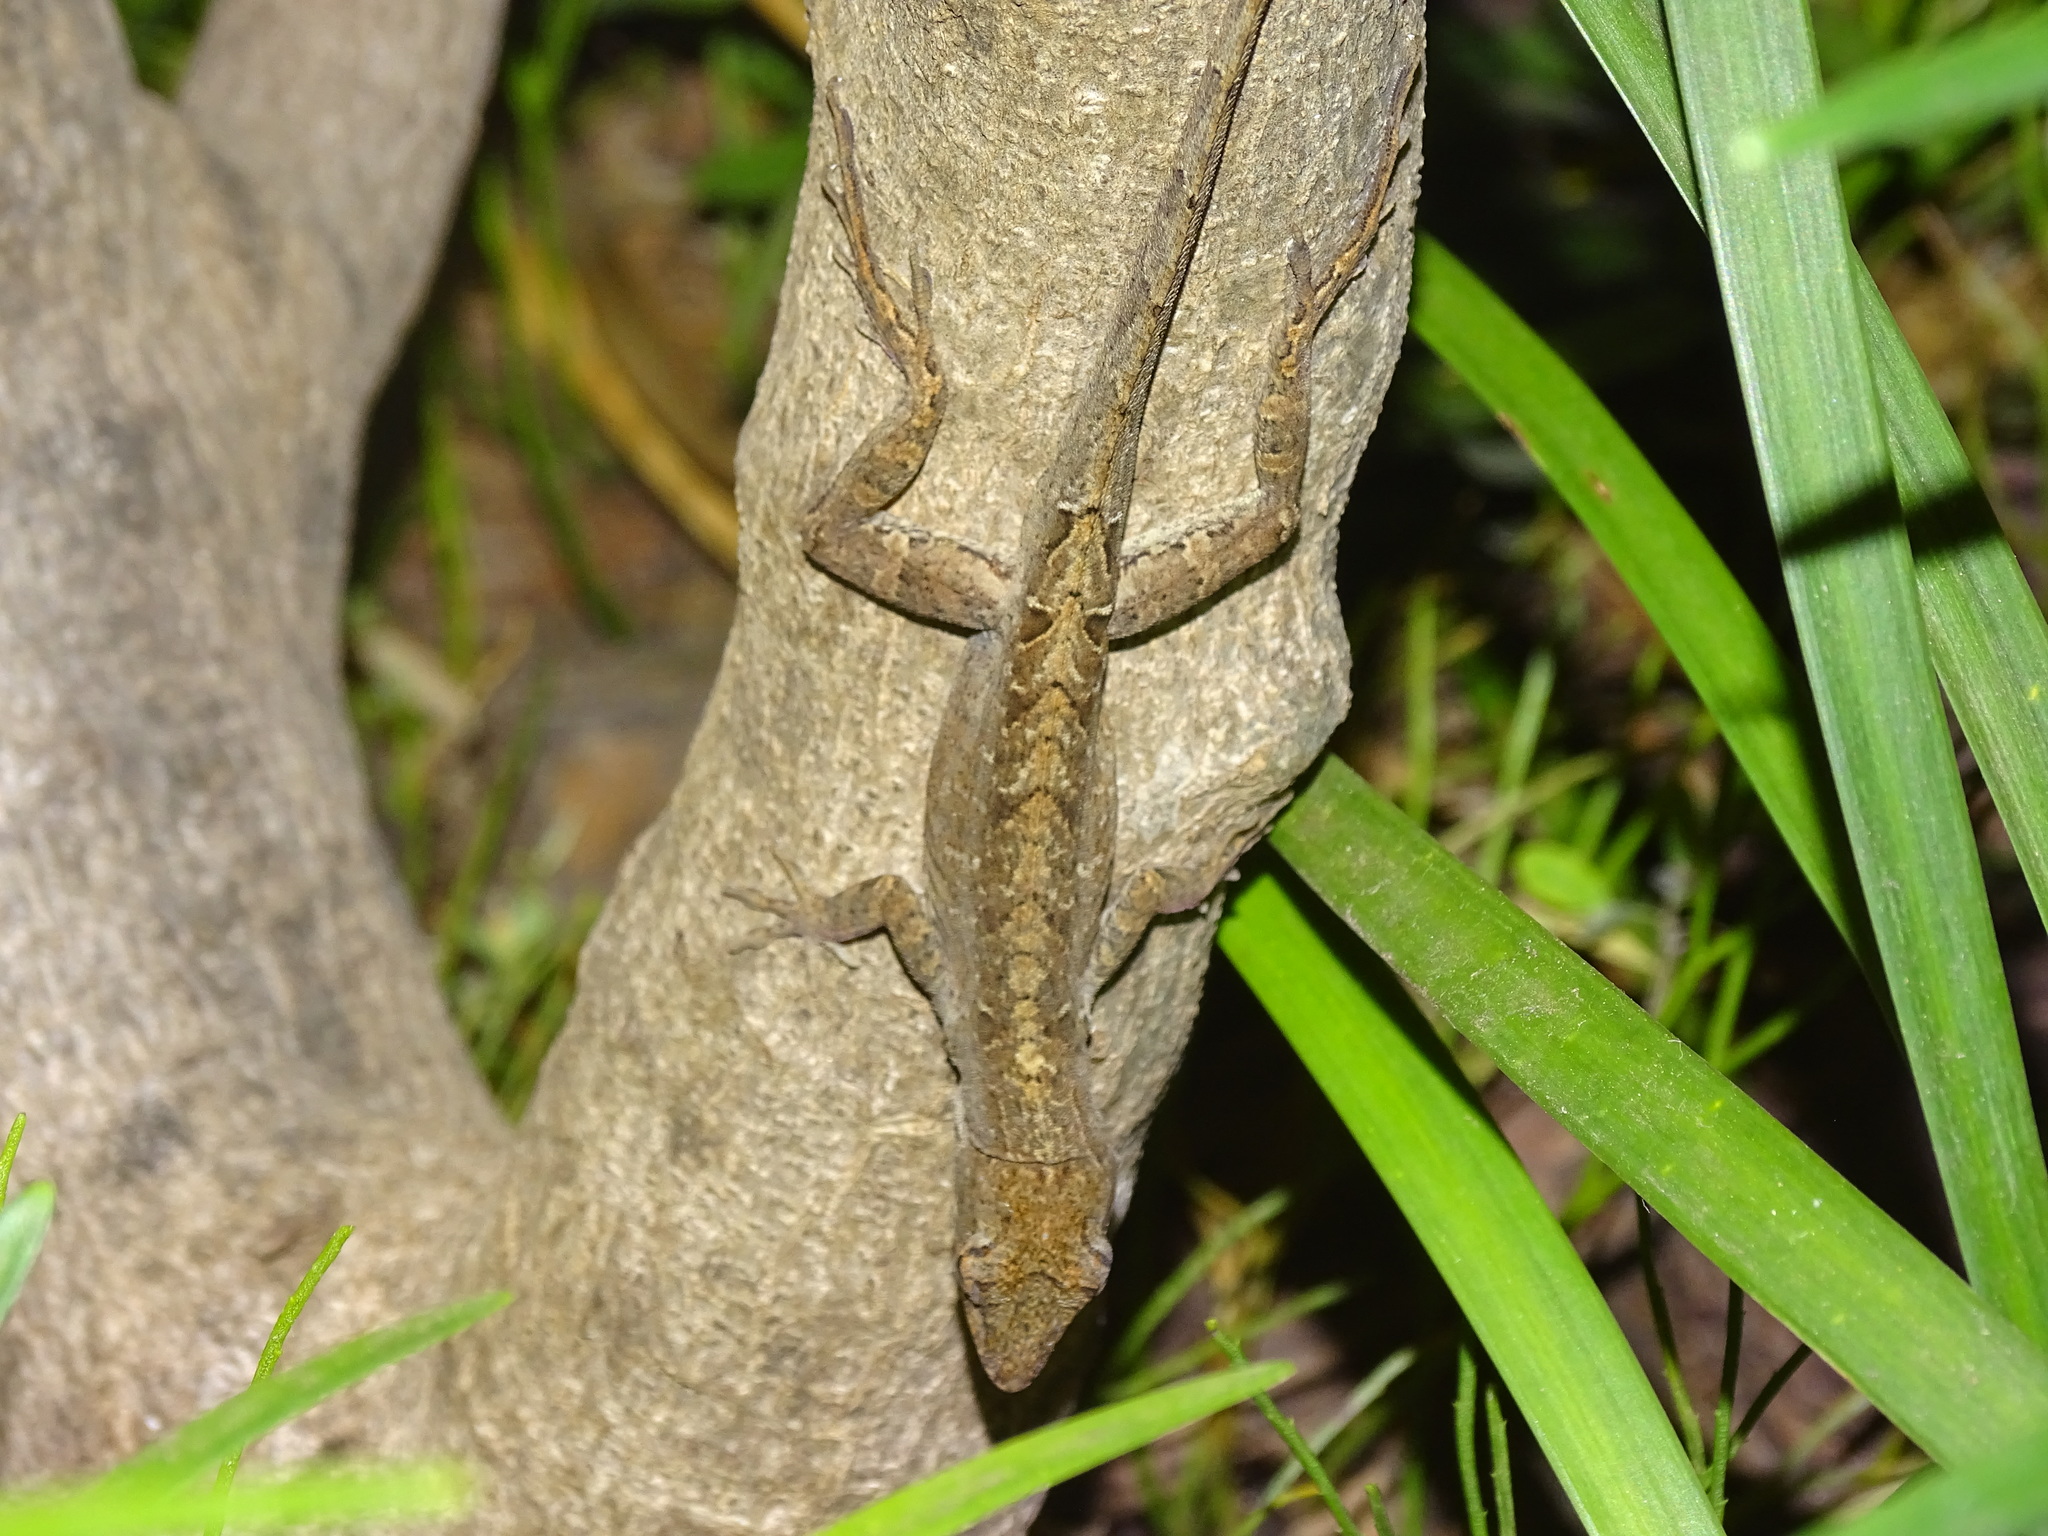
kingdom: Animalia
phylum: Chordata
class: Squamata
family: Dactyloidae
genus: Anolis
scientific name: Anolis sagrei
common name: Brown anole
